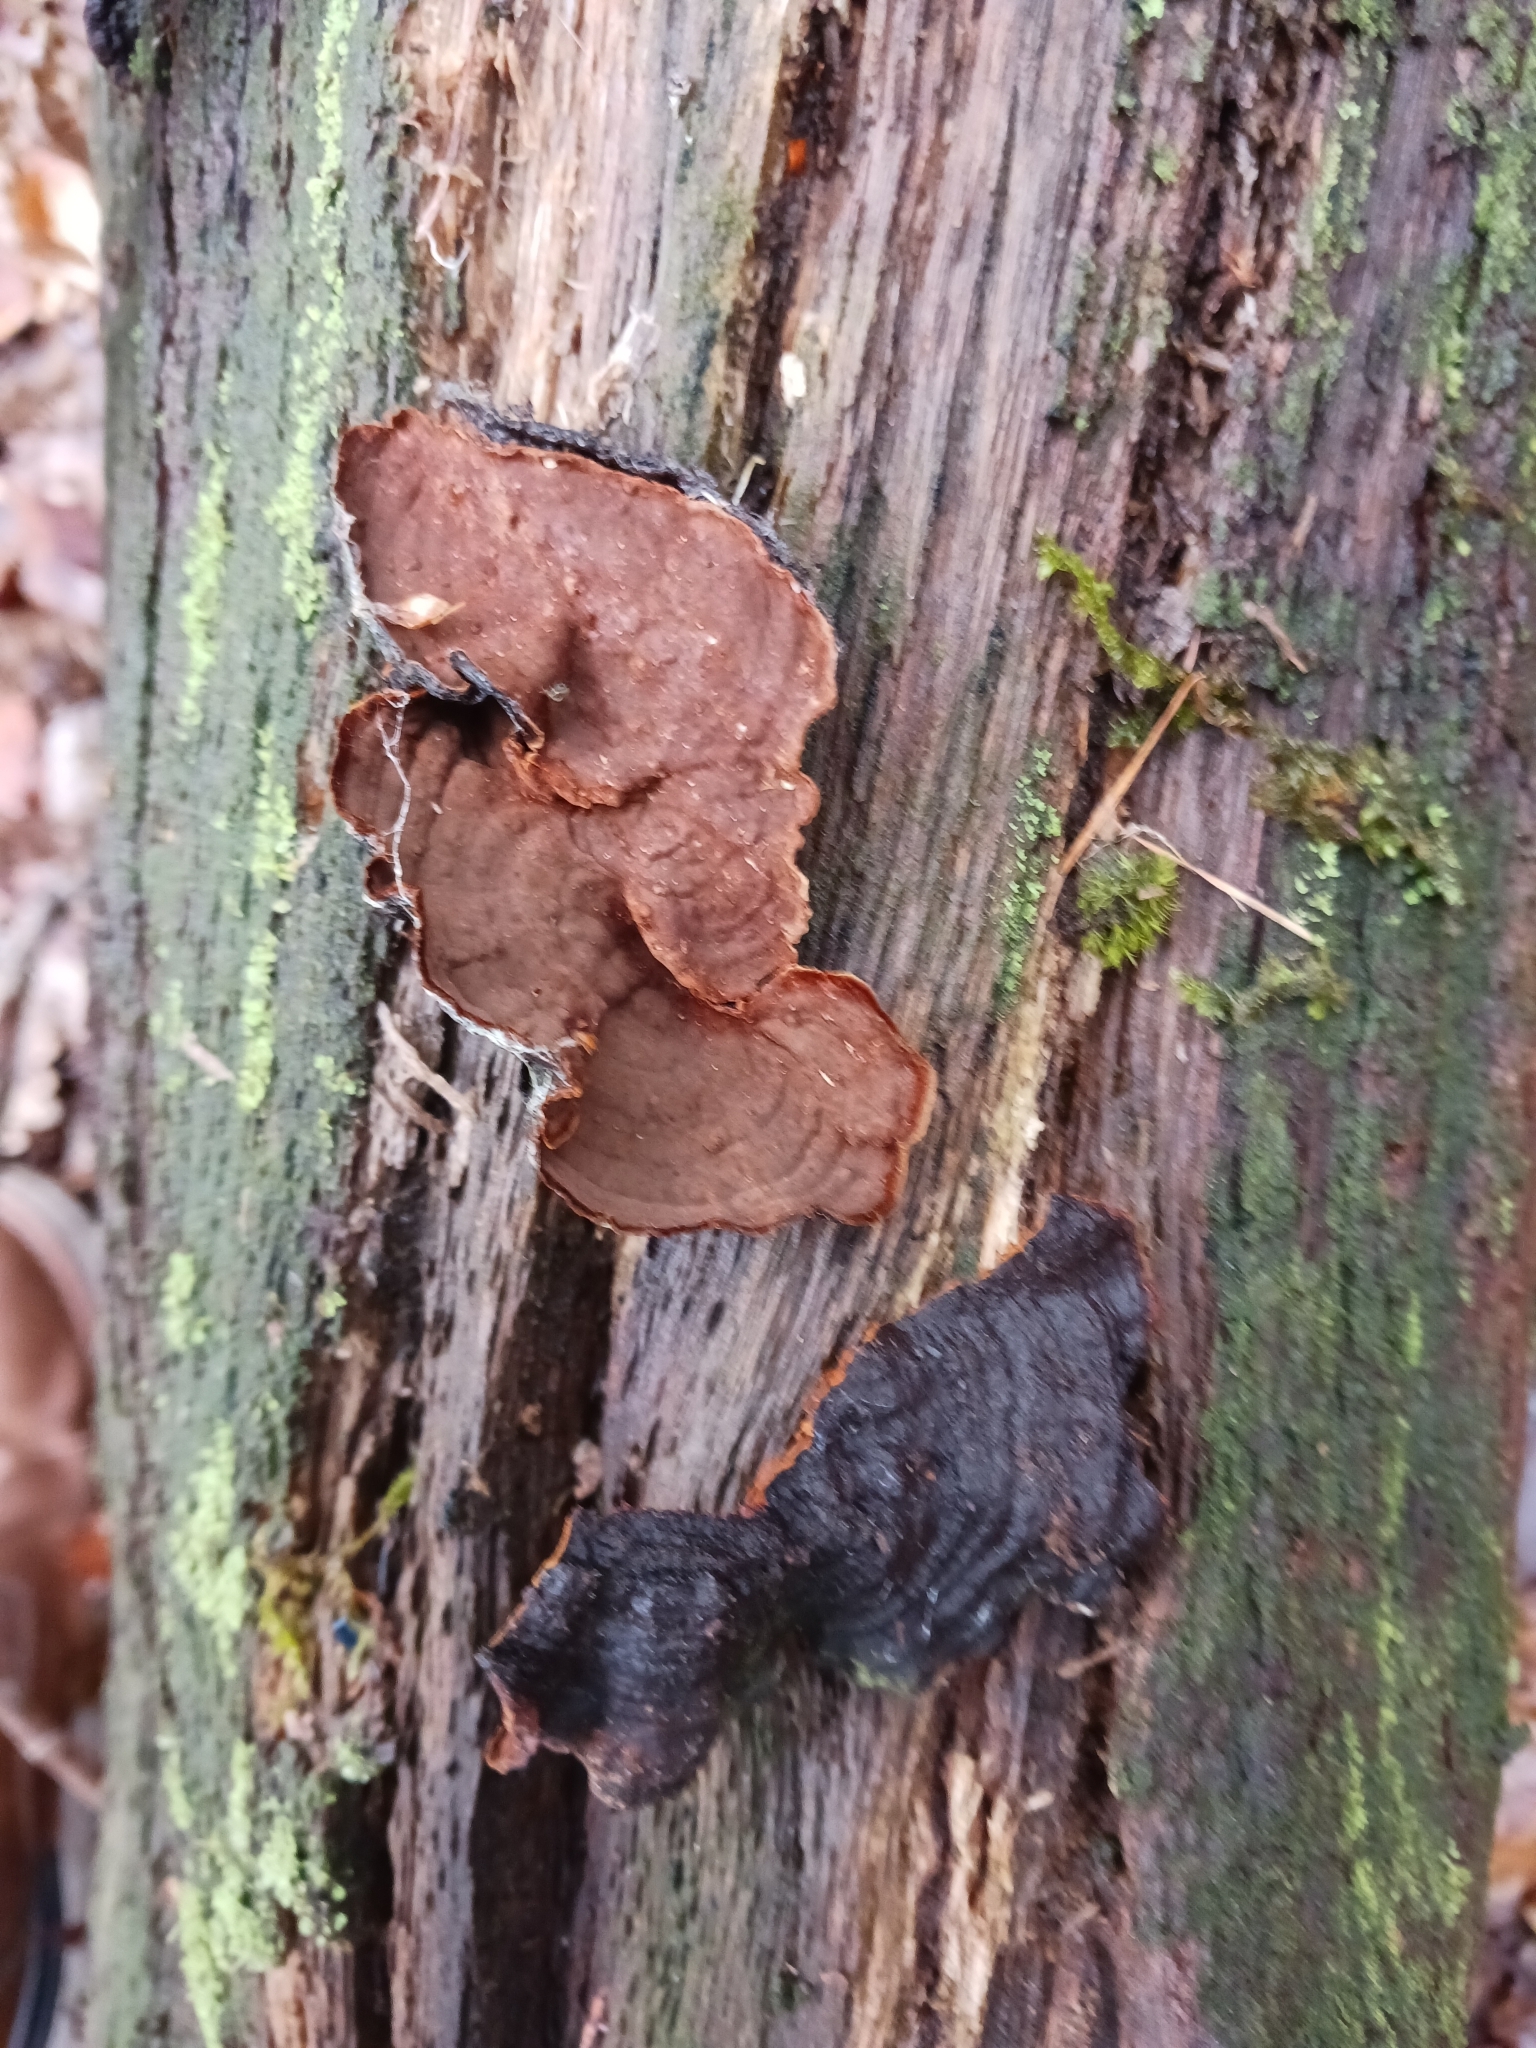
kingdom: Fungi
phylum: Basidiomycota
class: Agaricomycetes
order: Hymenochaetales
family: Hymenochaetaceae
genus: Hymenochaete
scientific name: Hymenochaete rubiginosa
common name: Oak curtain crust
